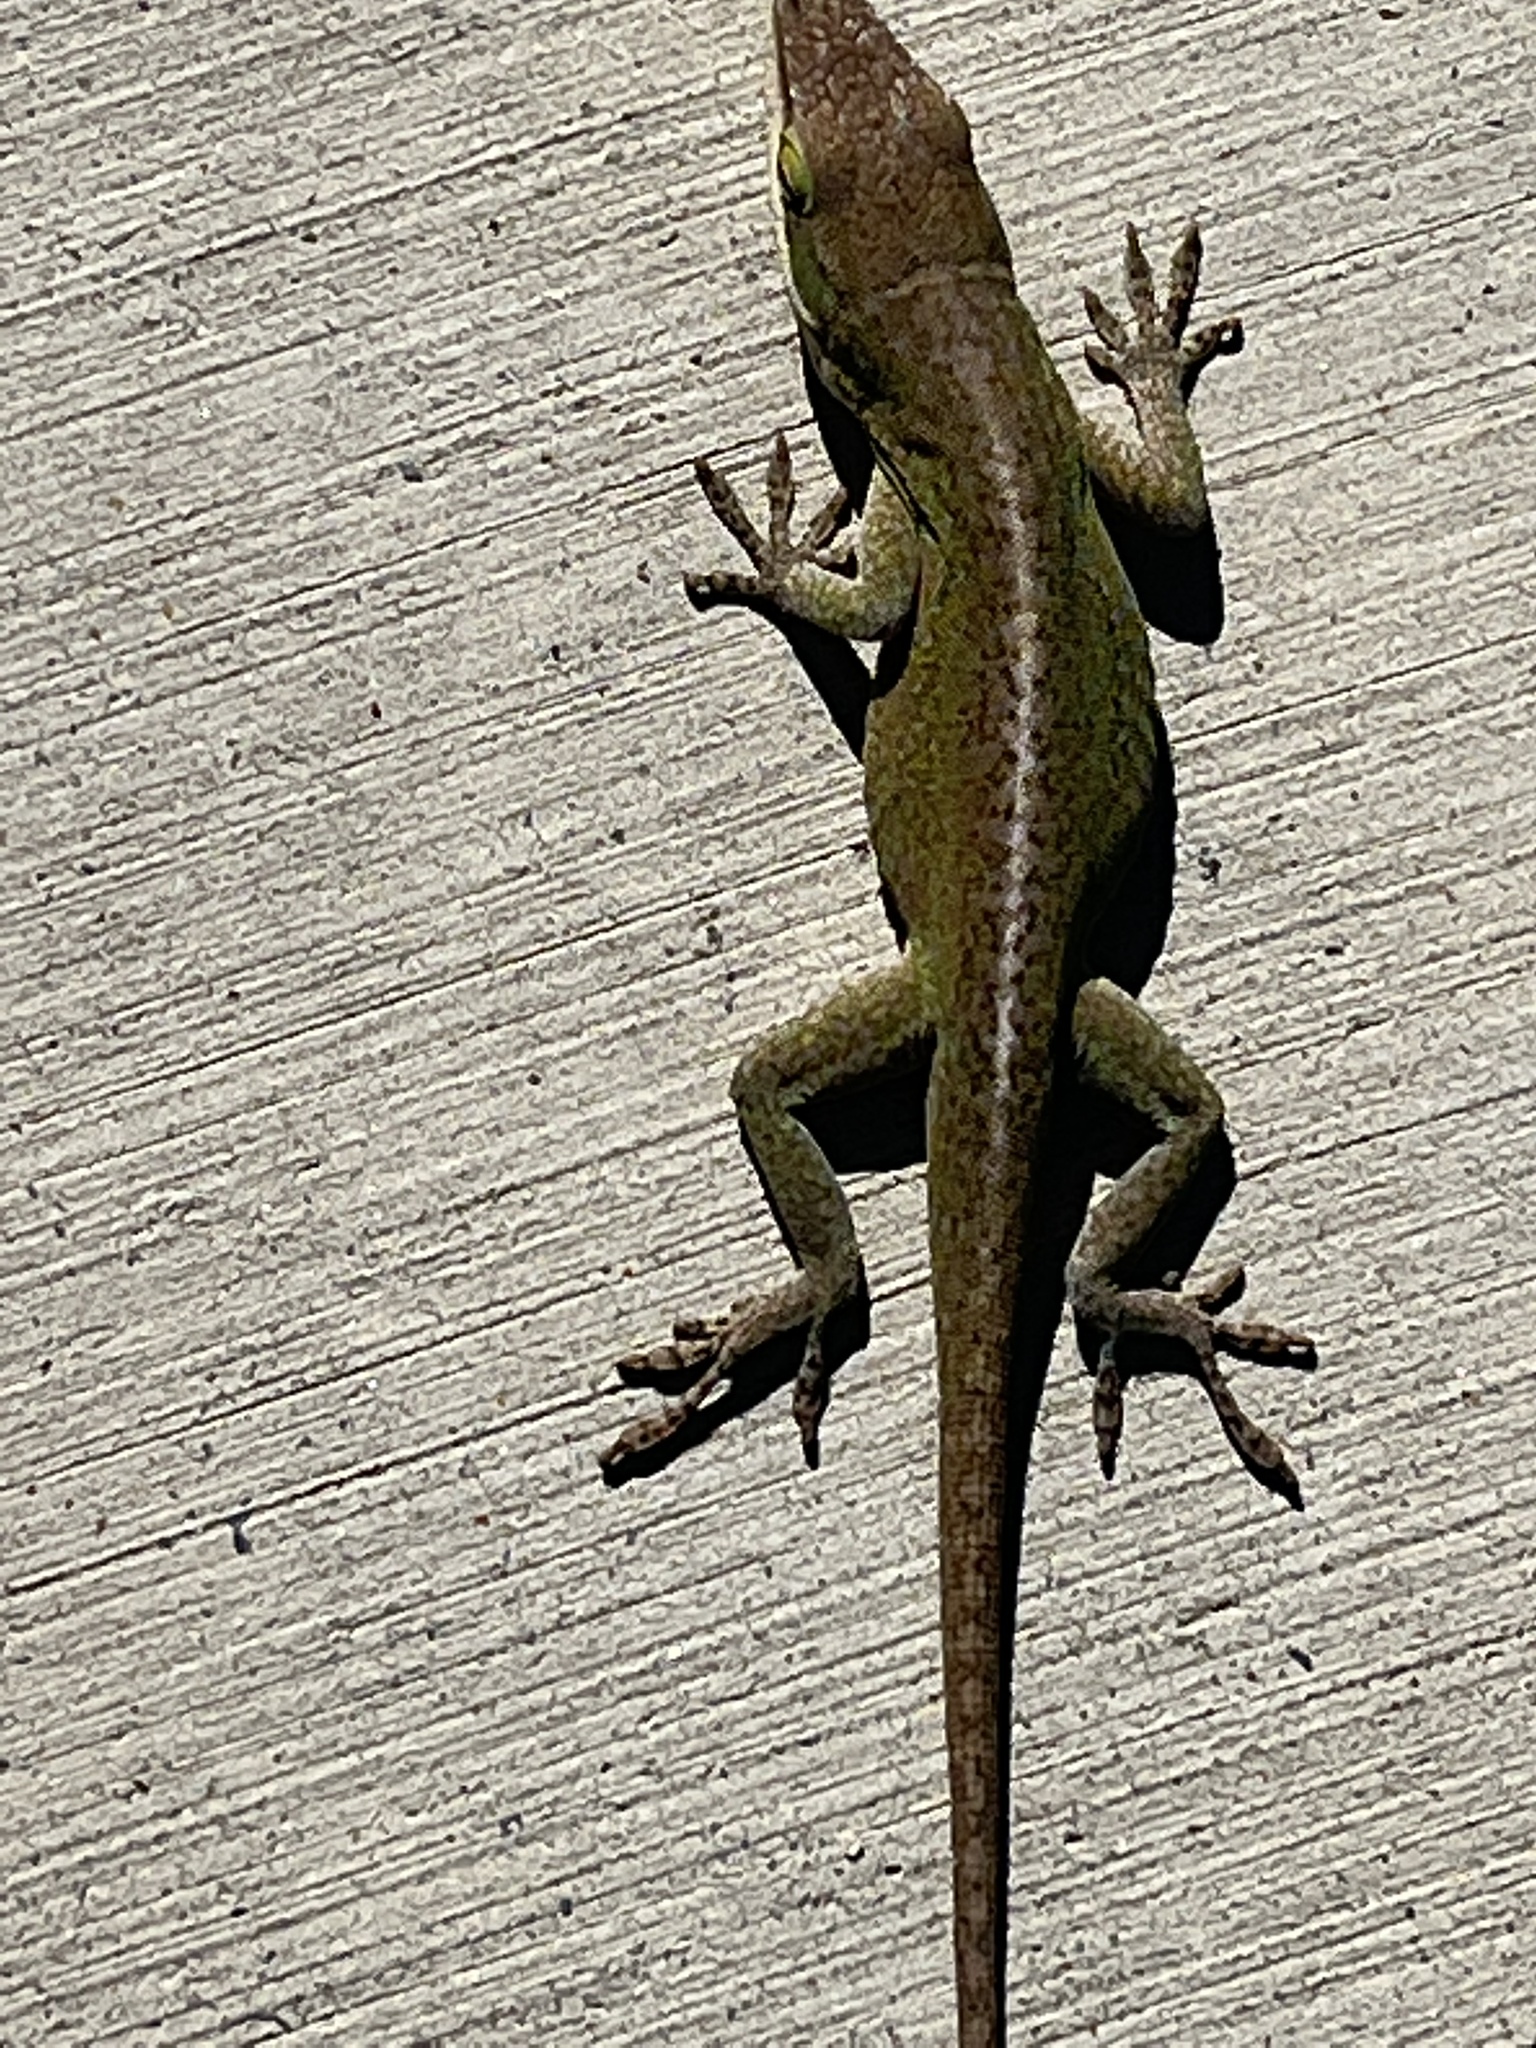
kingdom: Animalia
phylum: Chordata
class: Squamata
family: Dactyloidae
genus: Anolis
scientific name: Anolis carolinensis
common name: Green anole
